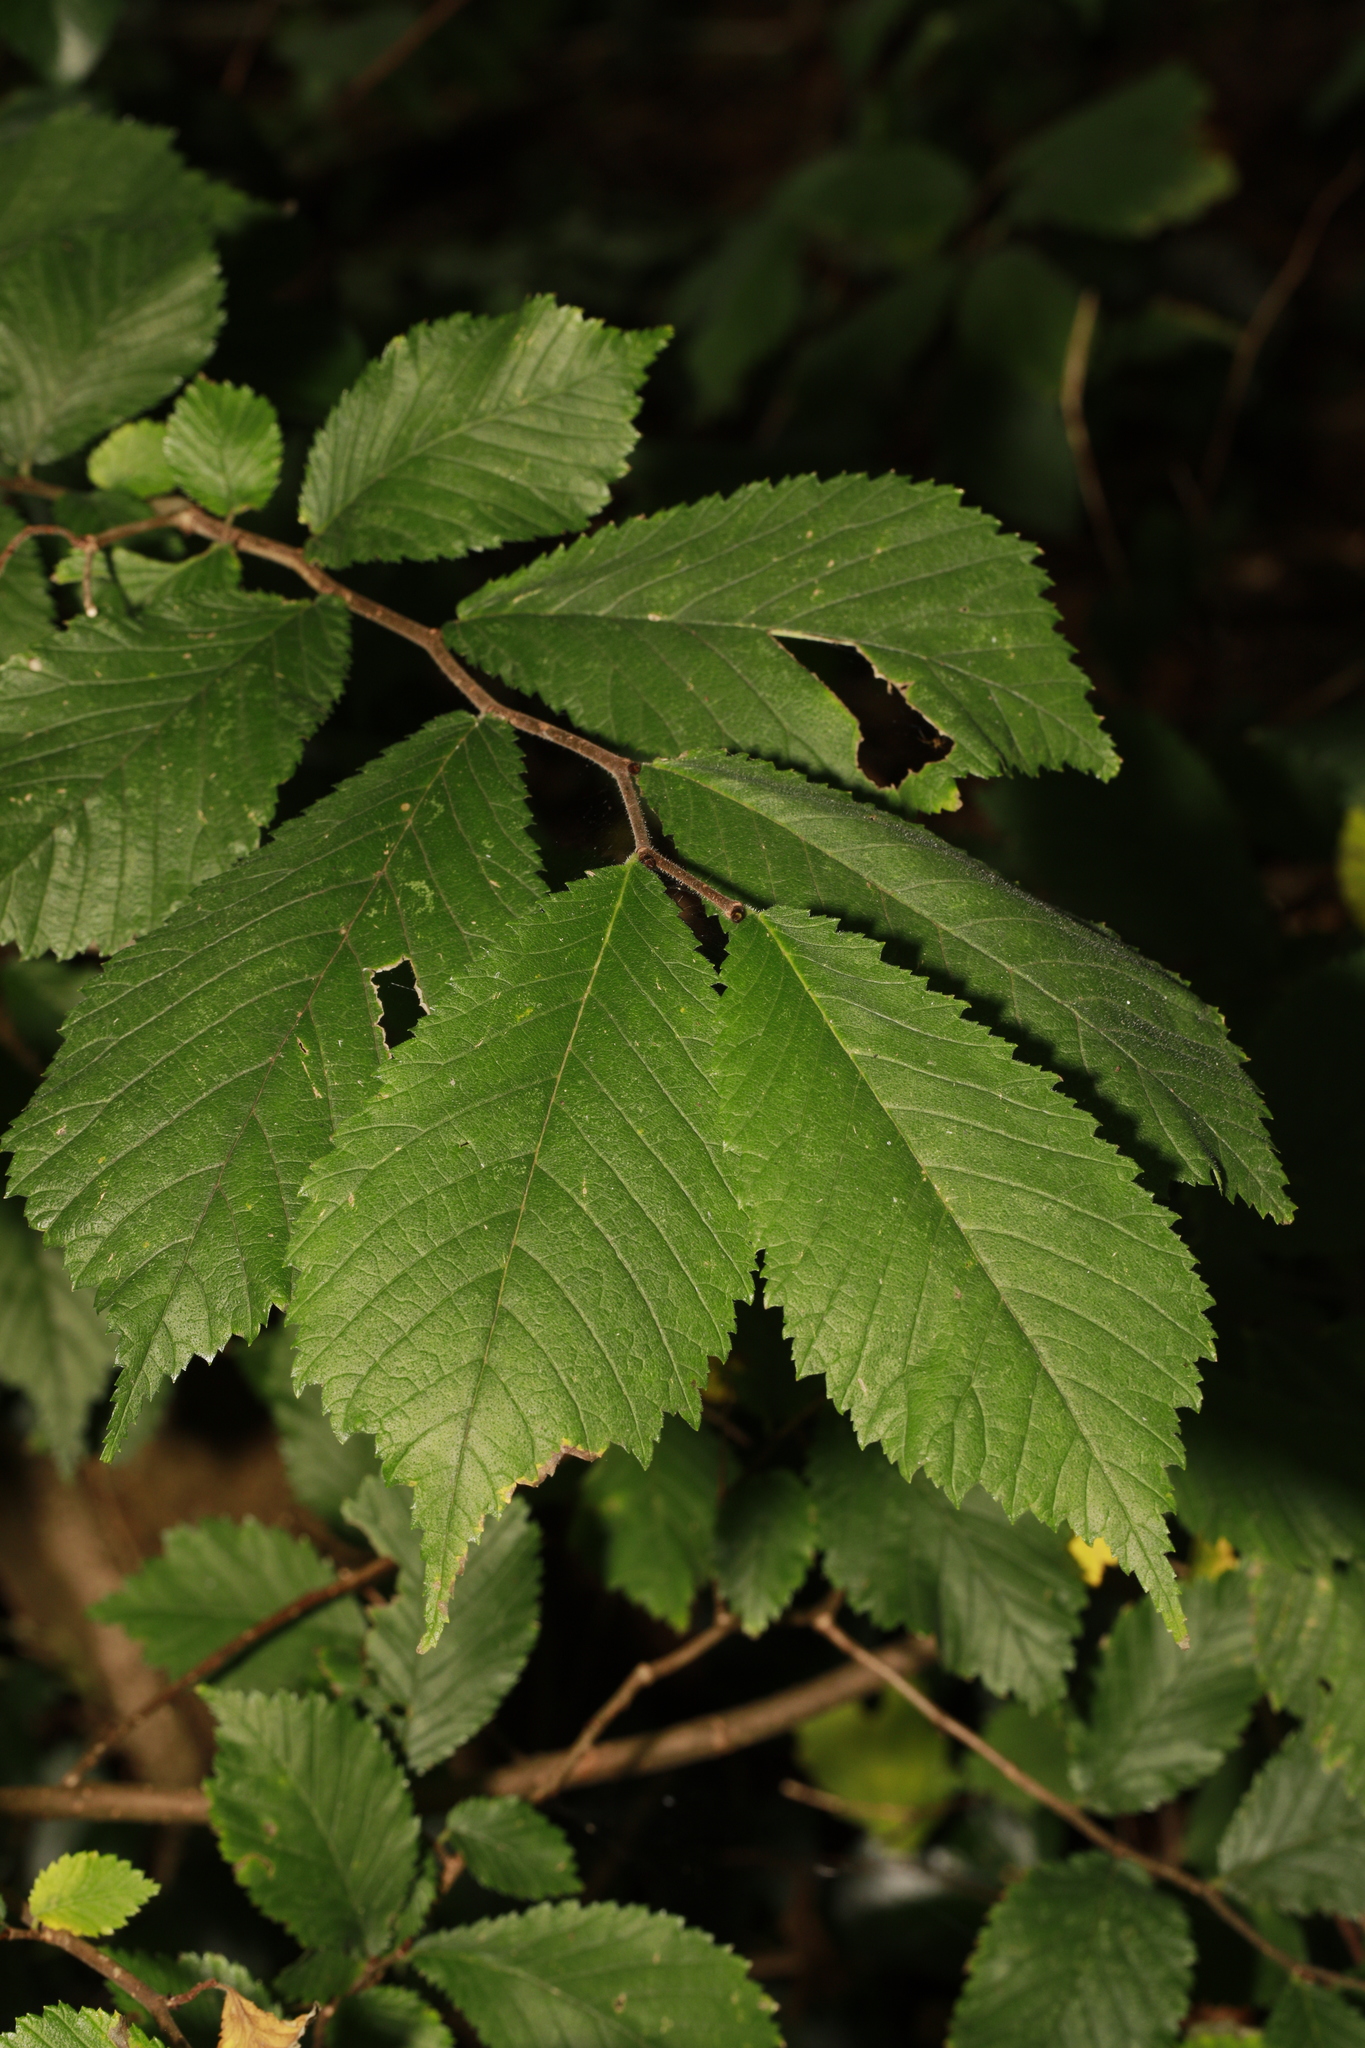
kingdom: Plantae
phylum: Tracheophyta
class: Magnoliopsida
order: Rosales
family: Ulmaceae
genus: Ulmus
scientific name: Ulmus glabra
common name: Wych elm
